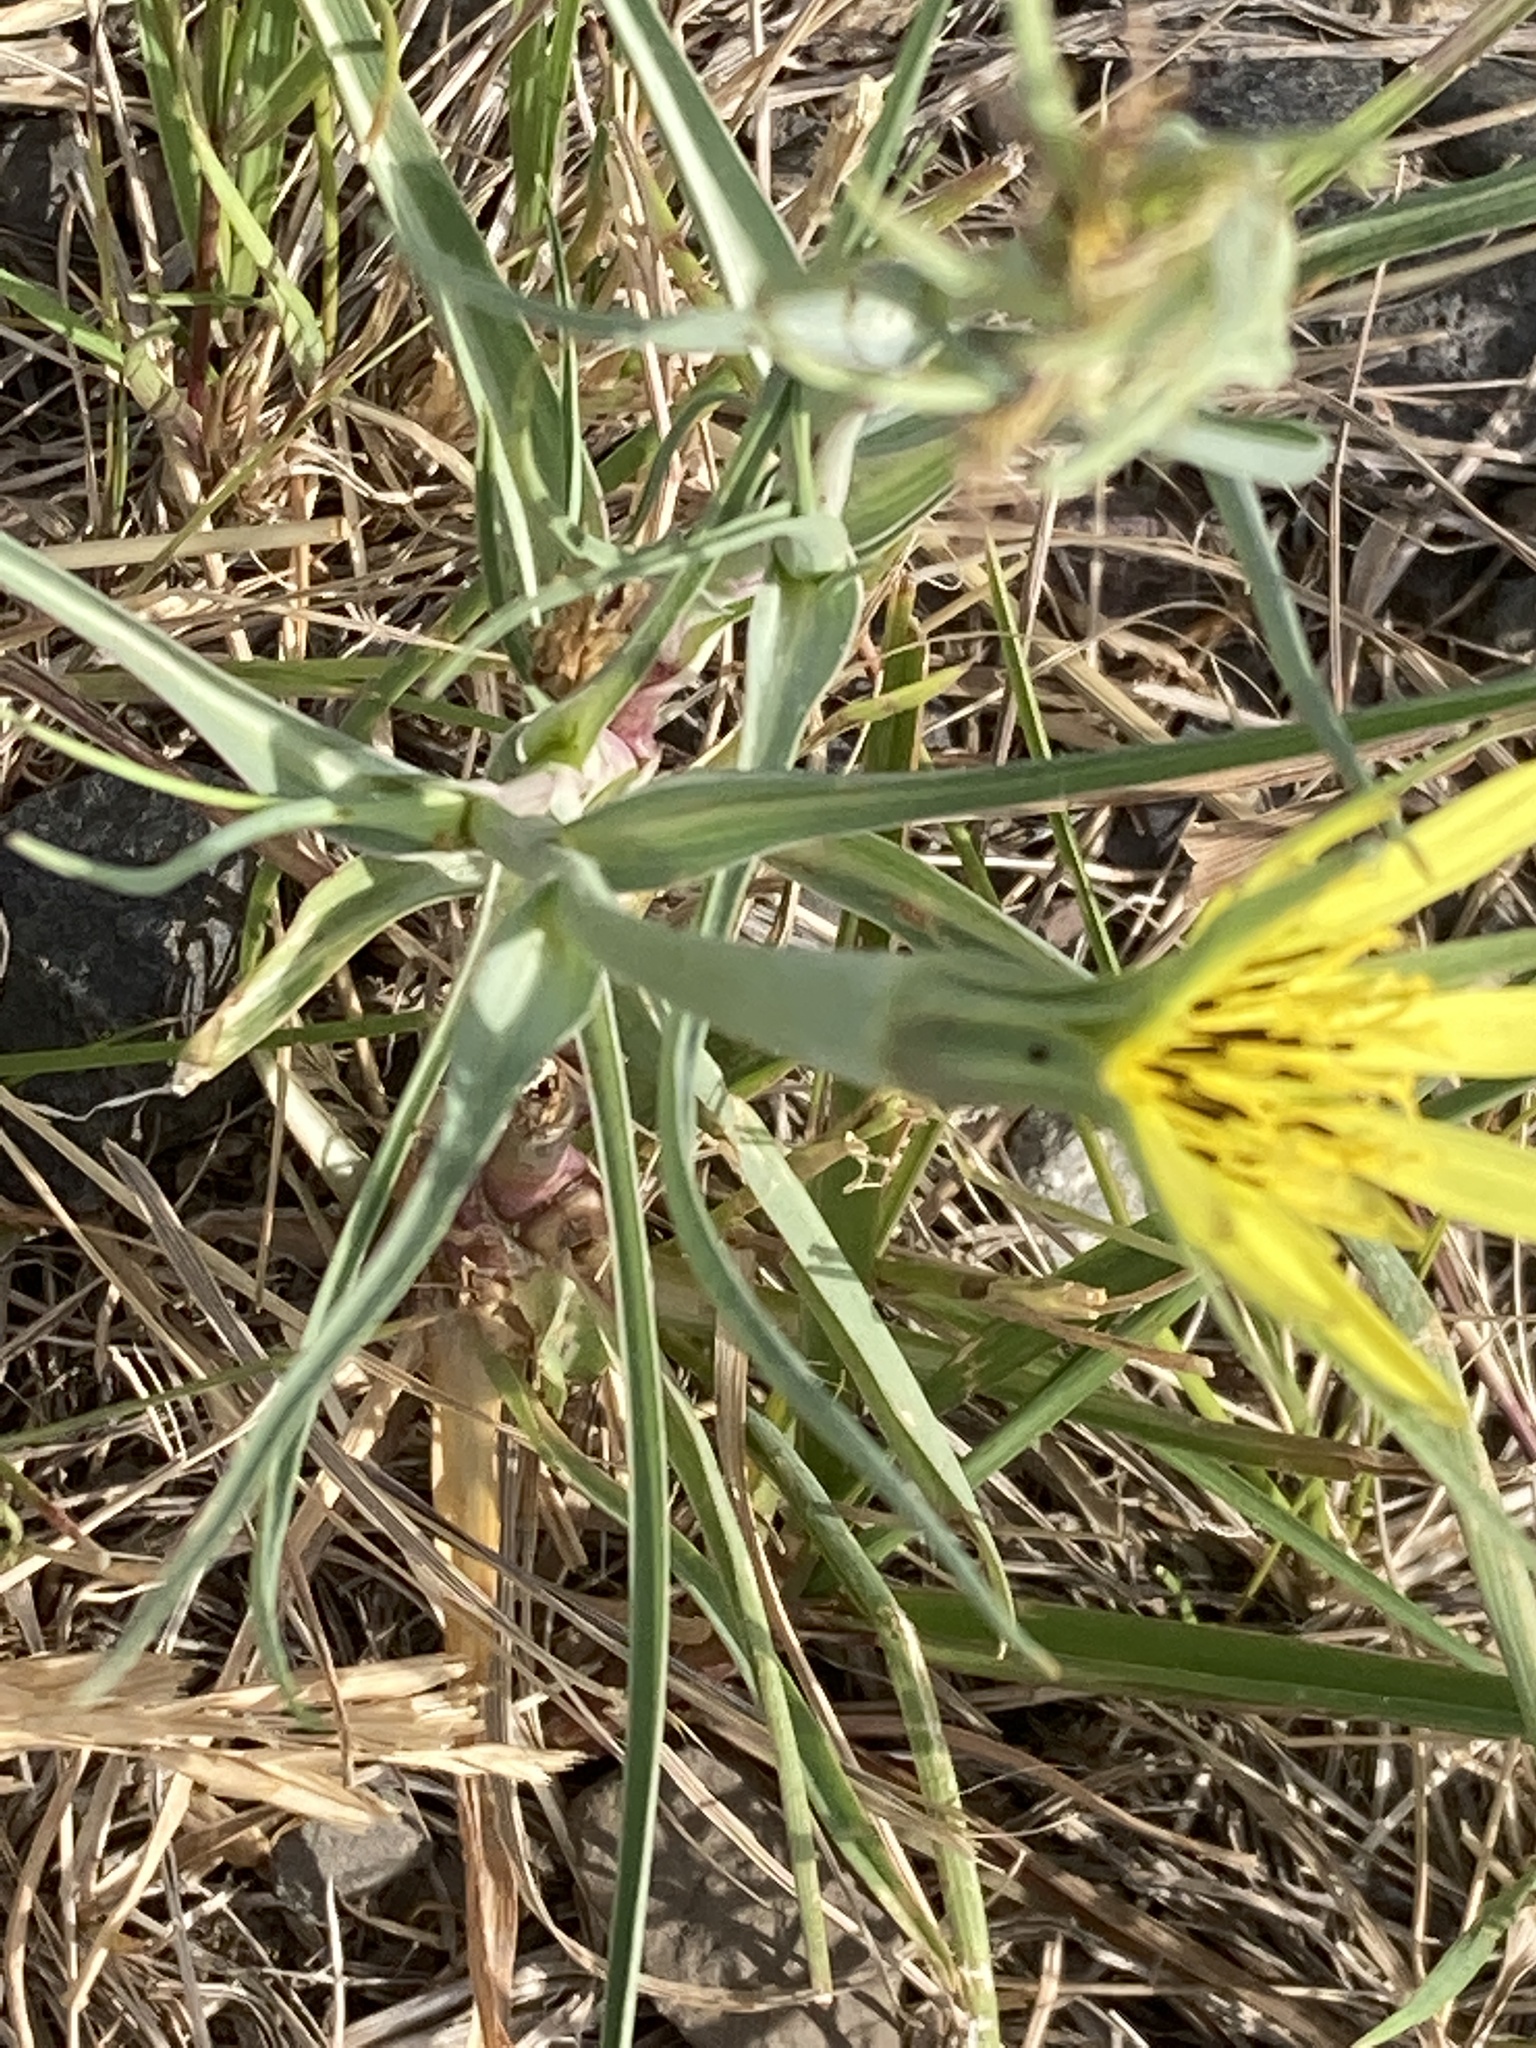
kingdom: Plantae
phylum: Tracheophyta
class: Magnoliopsida
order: Asterales
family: Asteraceae
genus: Tragopogon
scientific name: Tragopogon dubius
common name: Yellow salsify
